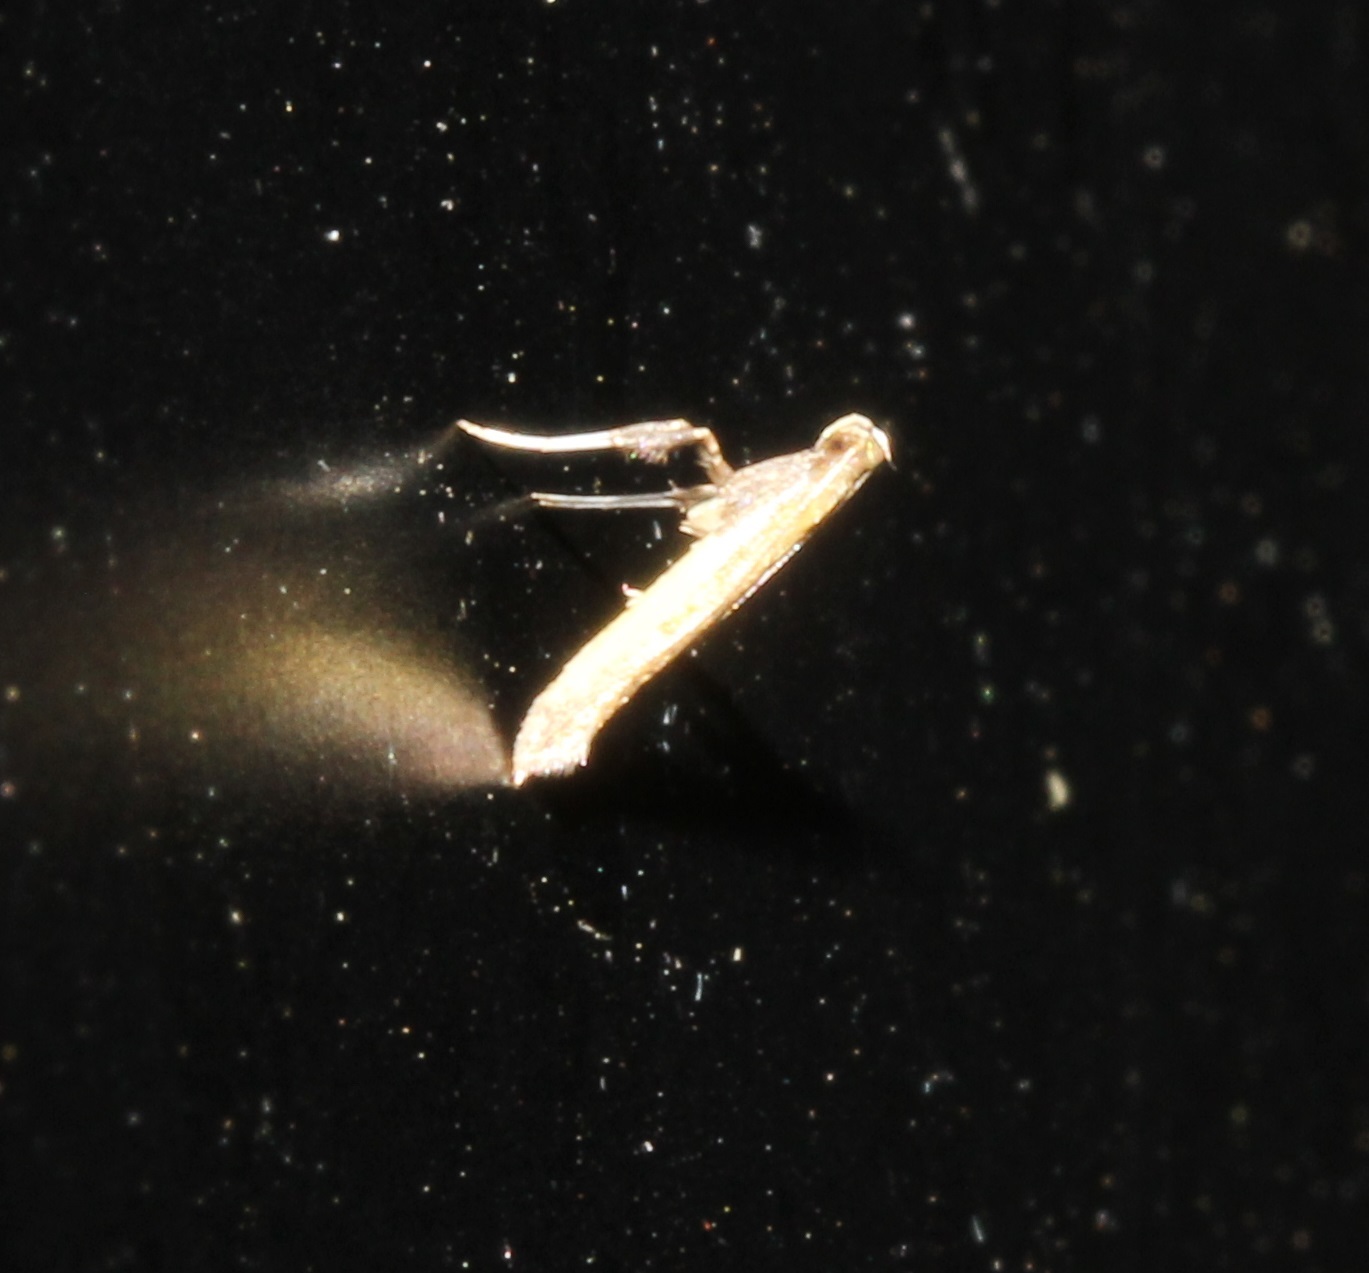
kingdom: Animalia
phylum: Arthropoda
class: Insecta
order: Lepidoptera
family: Gracillariidae
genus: Caloptilia
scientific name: Caloptilia
